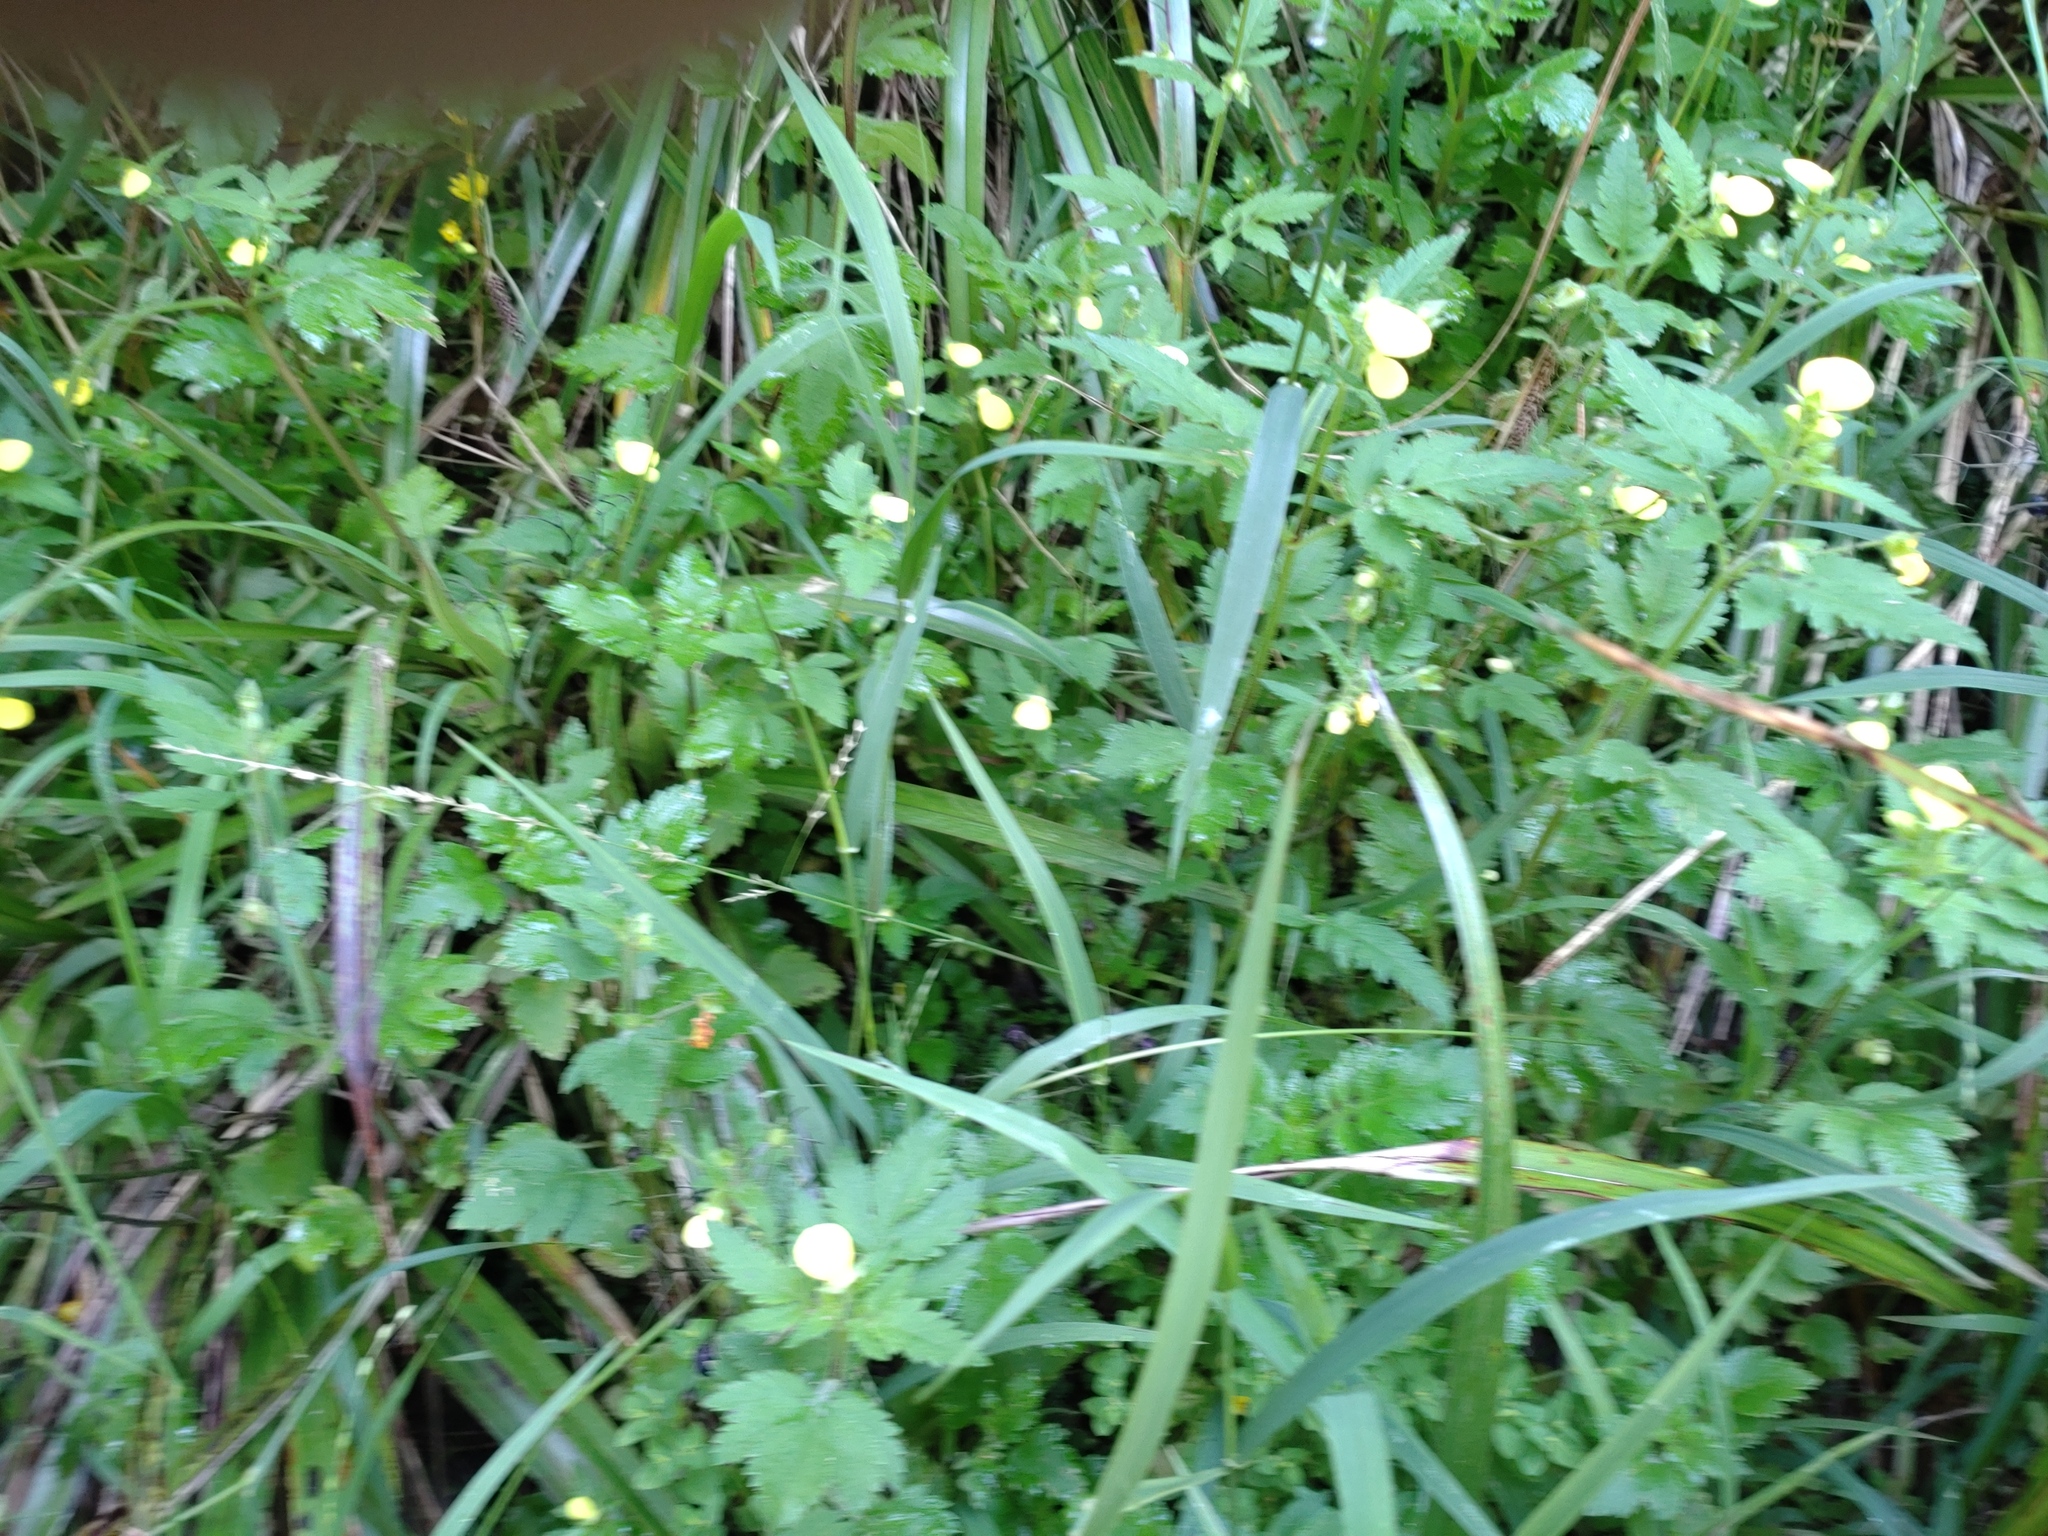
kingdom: Plantae
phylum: Tracheophyta
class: Magnoliopsida
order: Lamiales
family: Calceolariaceae
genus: Calceolaria
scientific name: Calceolaria tripartita
